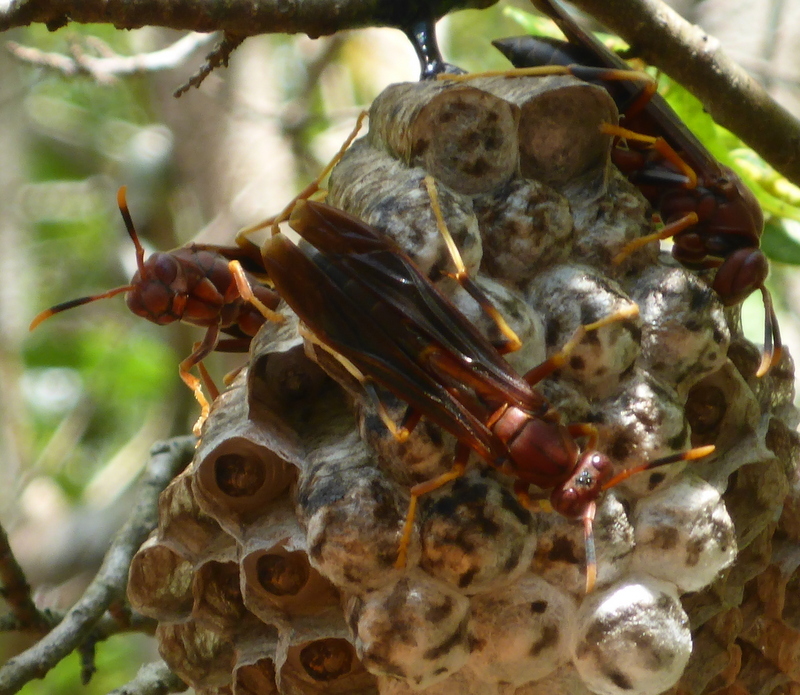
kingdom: Animalia
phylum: Arthropoda
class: Insecta
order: Hymenoptera
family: Eumenidae
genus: Polistes
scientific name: Polistes annularis
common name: Ringed paper wasp
